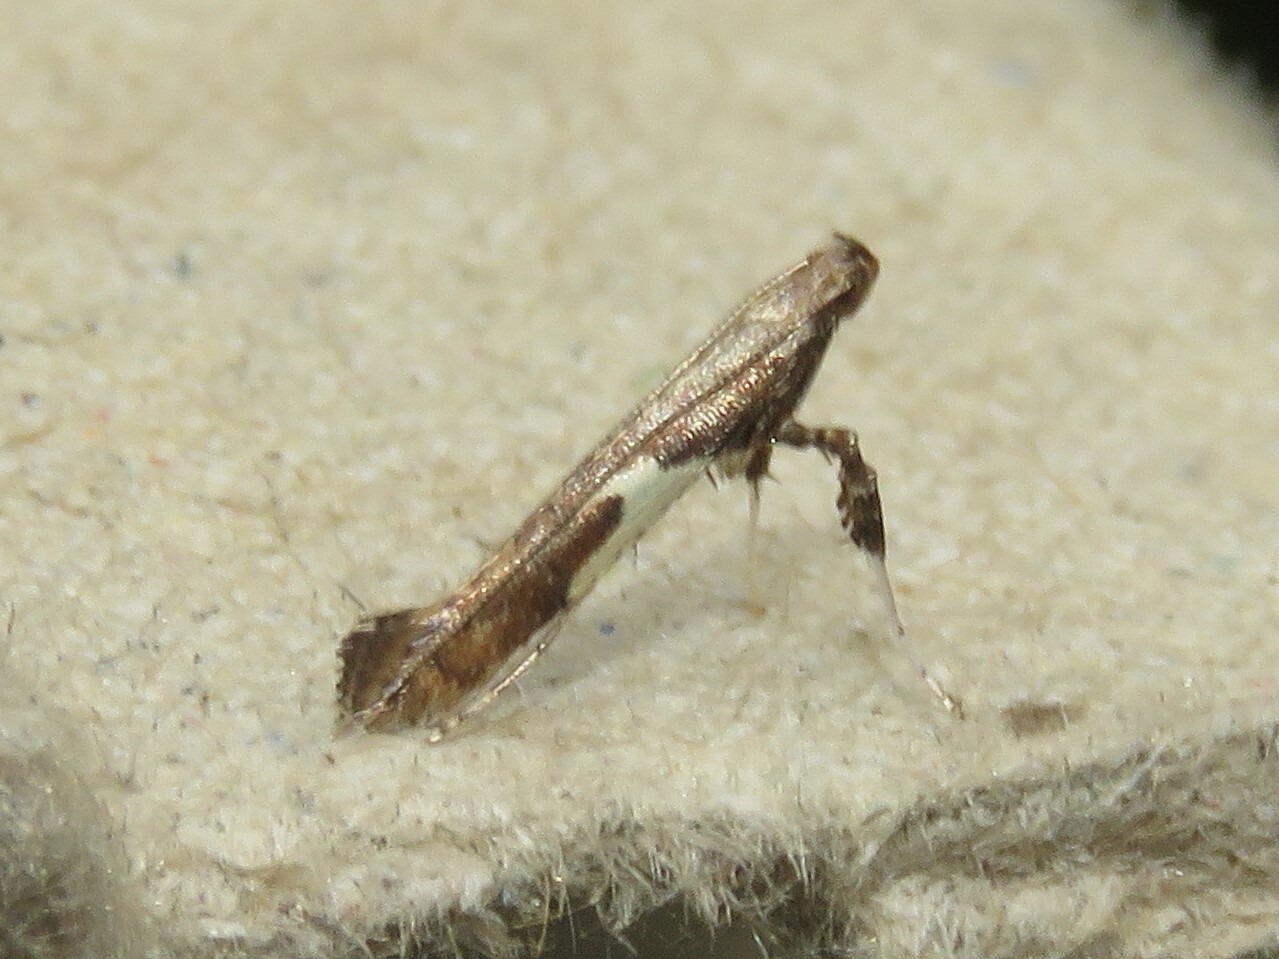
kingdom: Animalia
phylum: Arthropoda
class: Insecta
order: Lepidoptera
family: Gracillariidae
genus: Caloptilia
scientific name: Caloptilia stigmatella
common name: White-triangle slender
